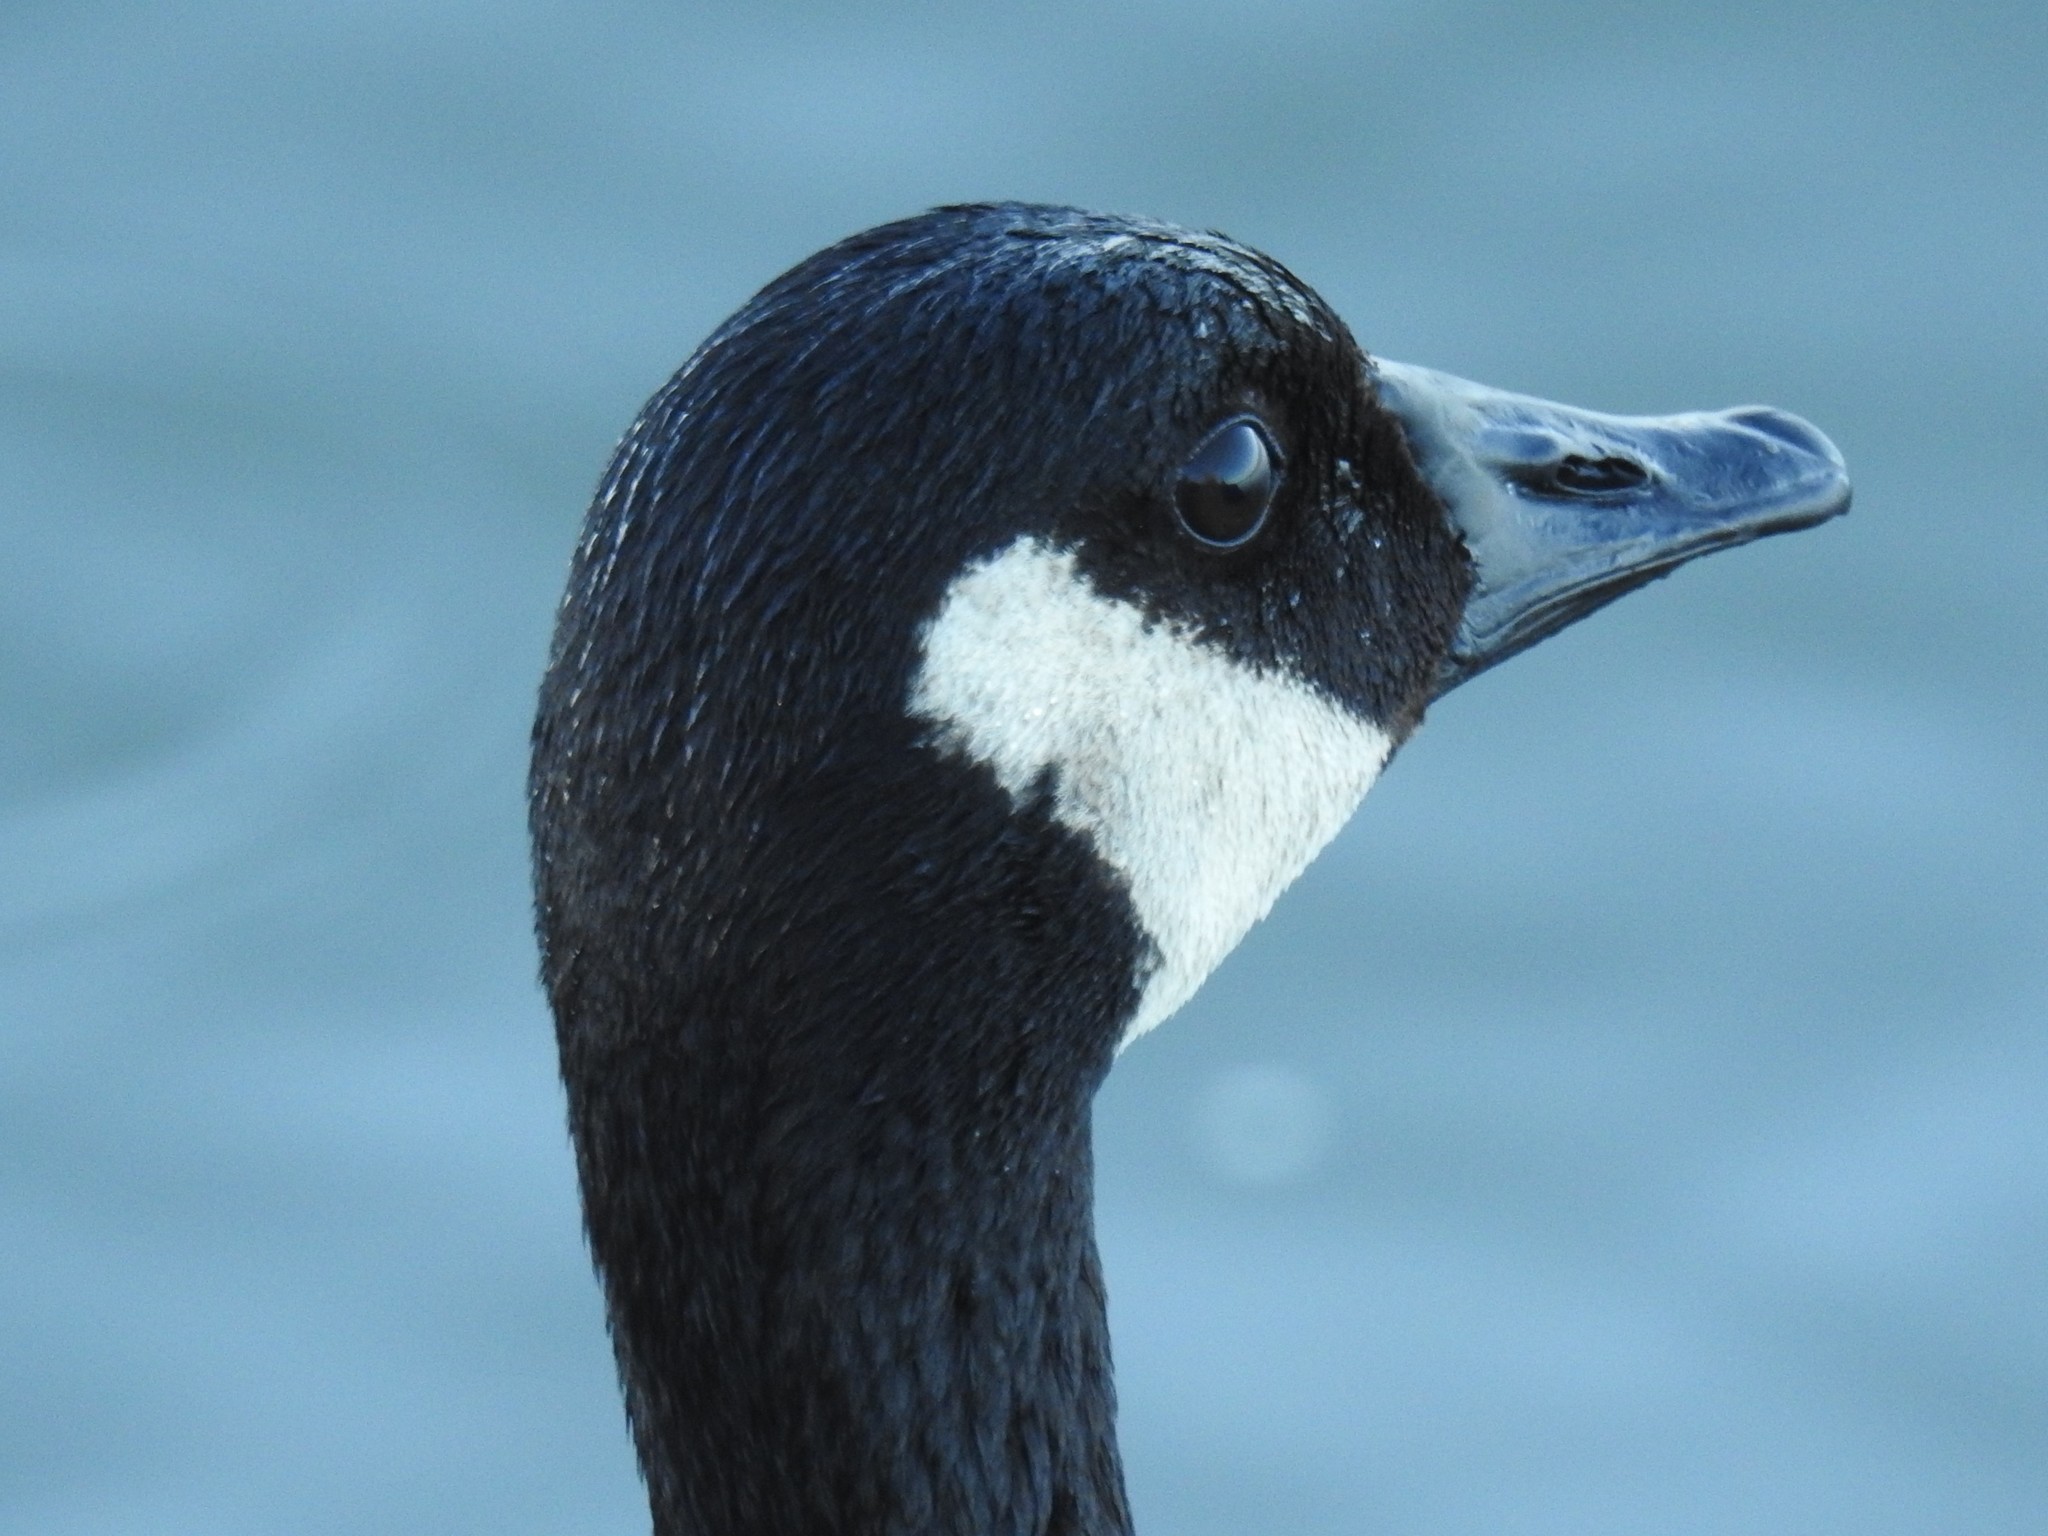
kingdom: Animalia
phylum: Chordata
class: Aves
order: Anseriformes
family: Anatidae
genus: Branta
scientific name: Branta canadensis
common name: Canada goose
